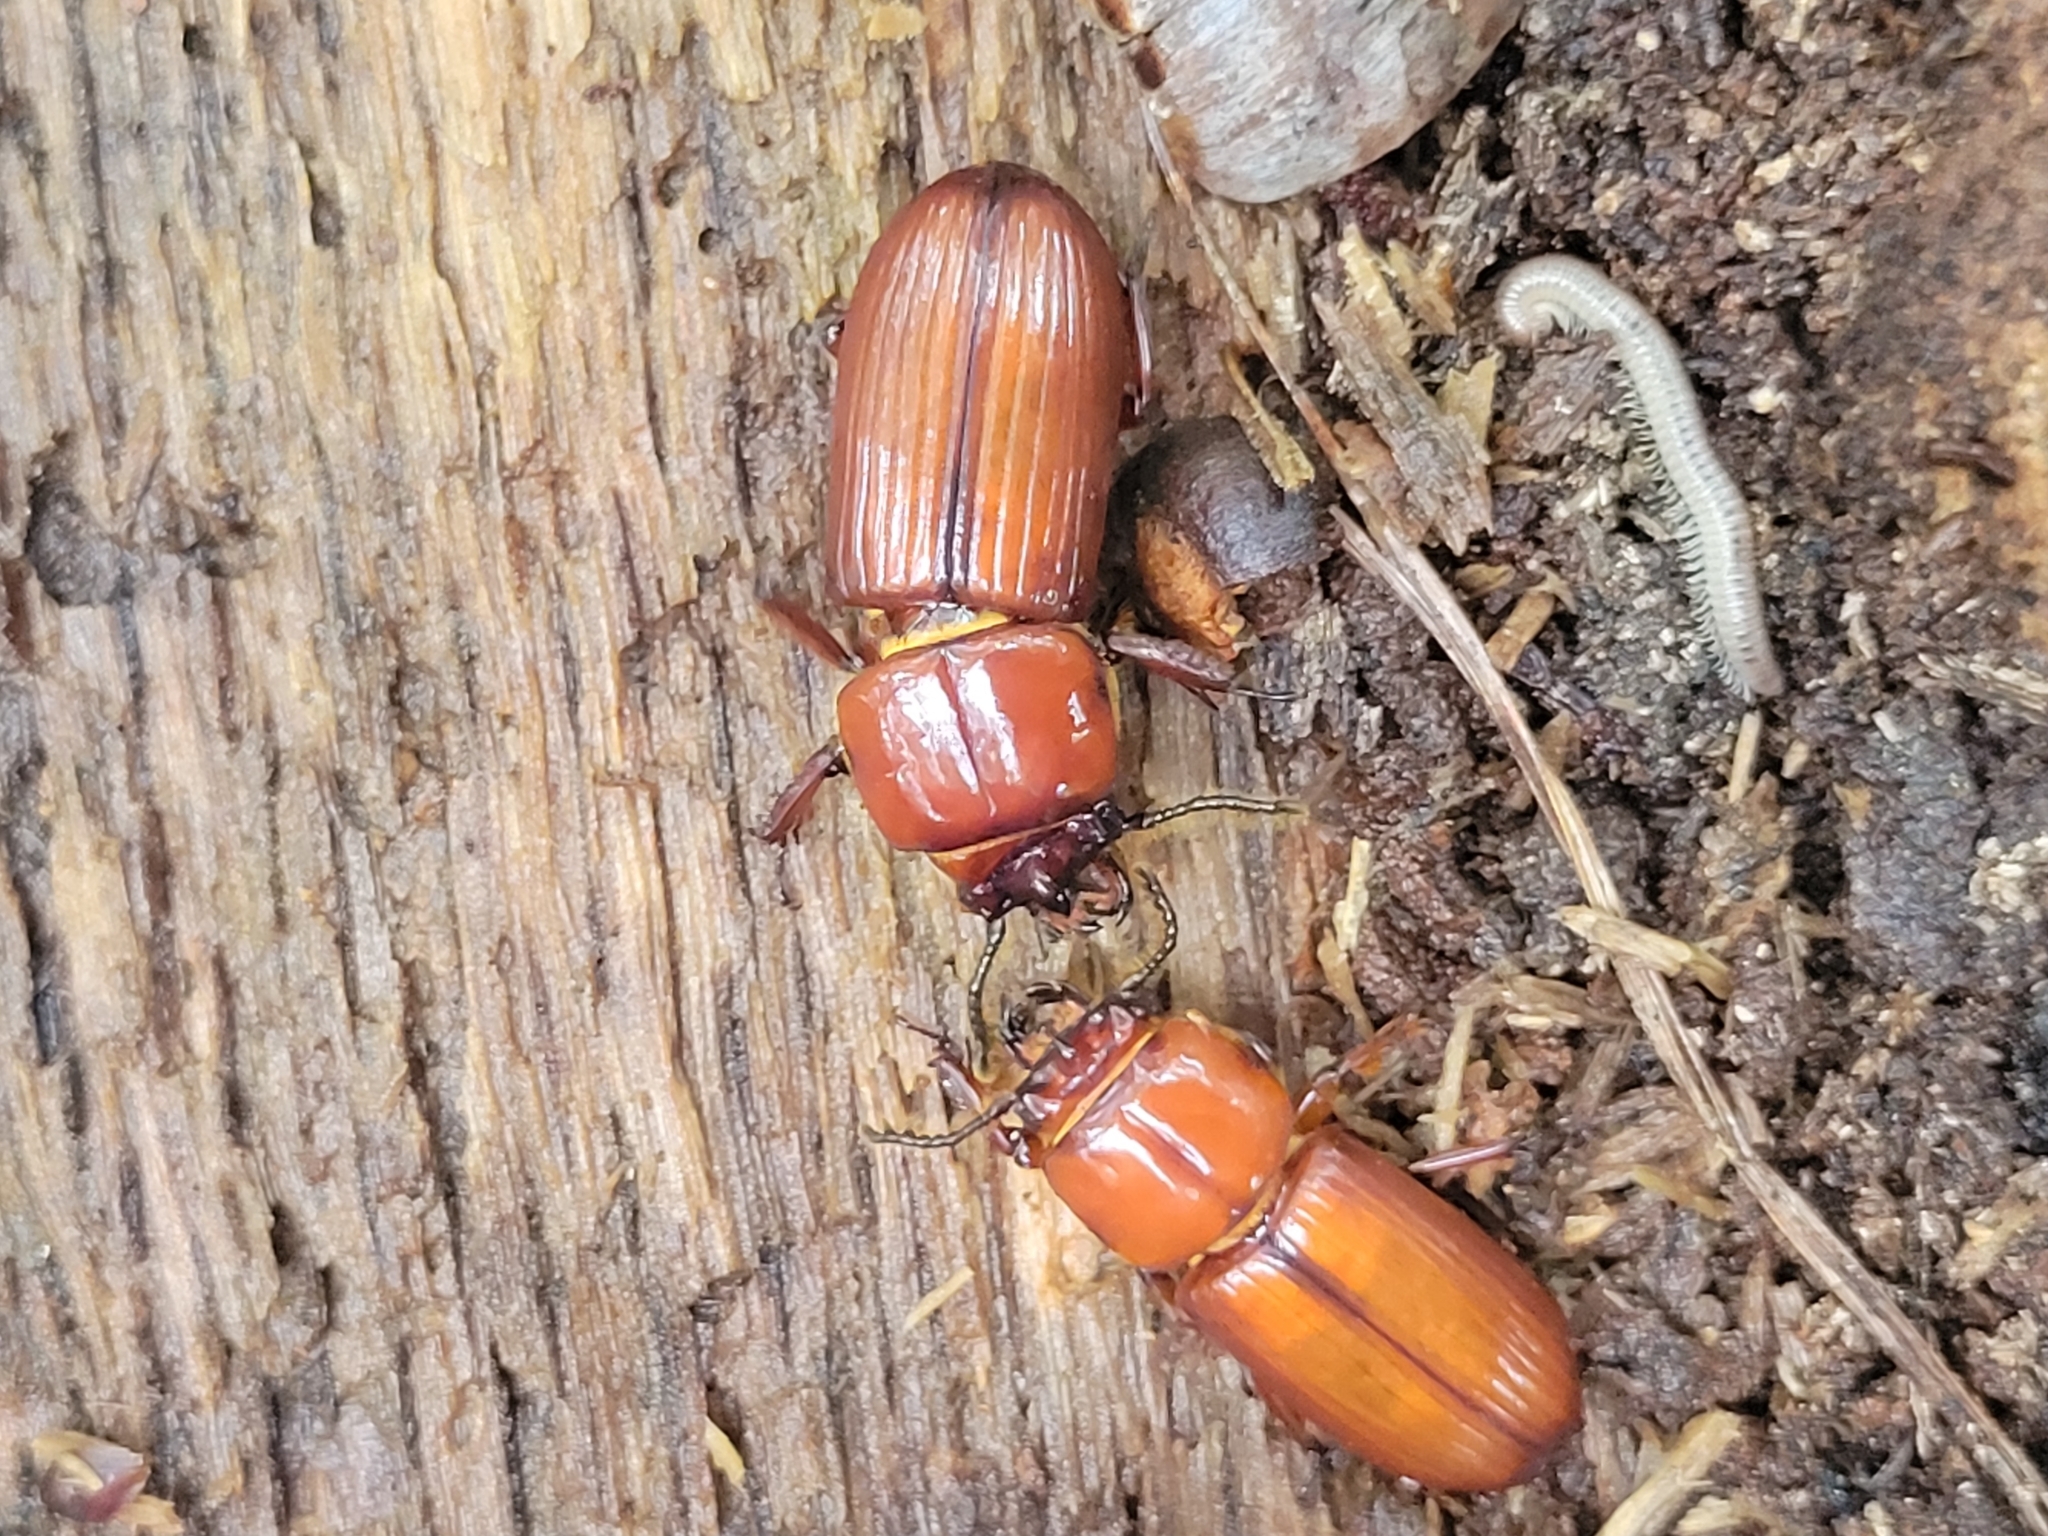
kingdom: Animalia
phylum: Arthropoda
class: Insecta
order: Coleoptera
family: Passalidae
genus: Odontotaenius
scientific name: Odontotaenius disjunctus
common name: Patent leather beetle
